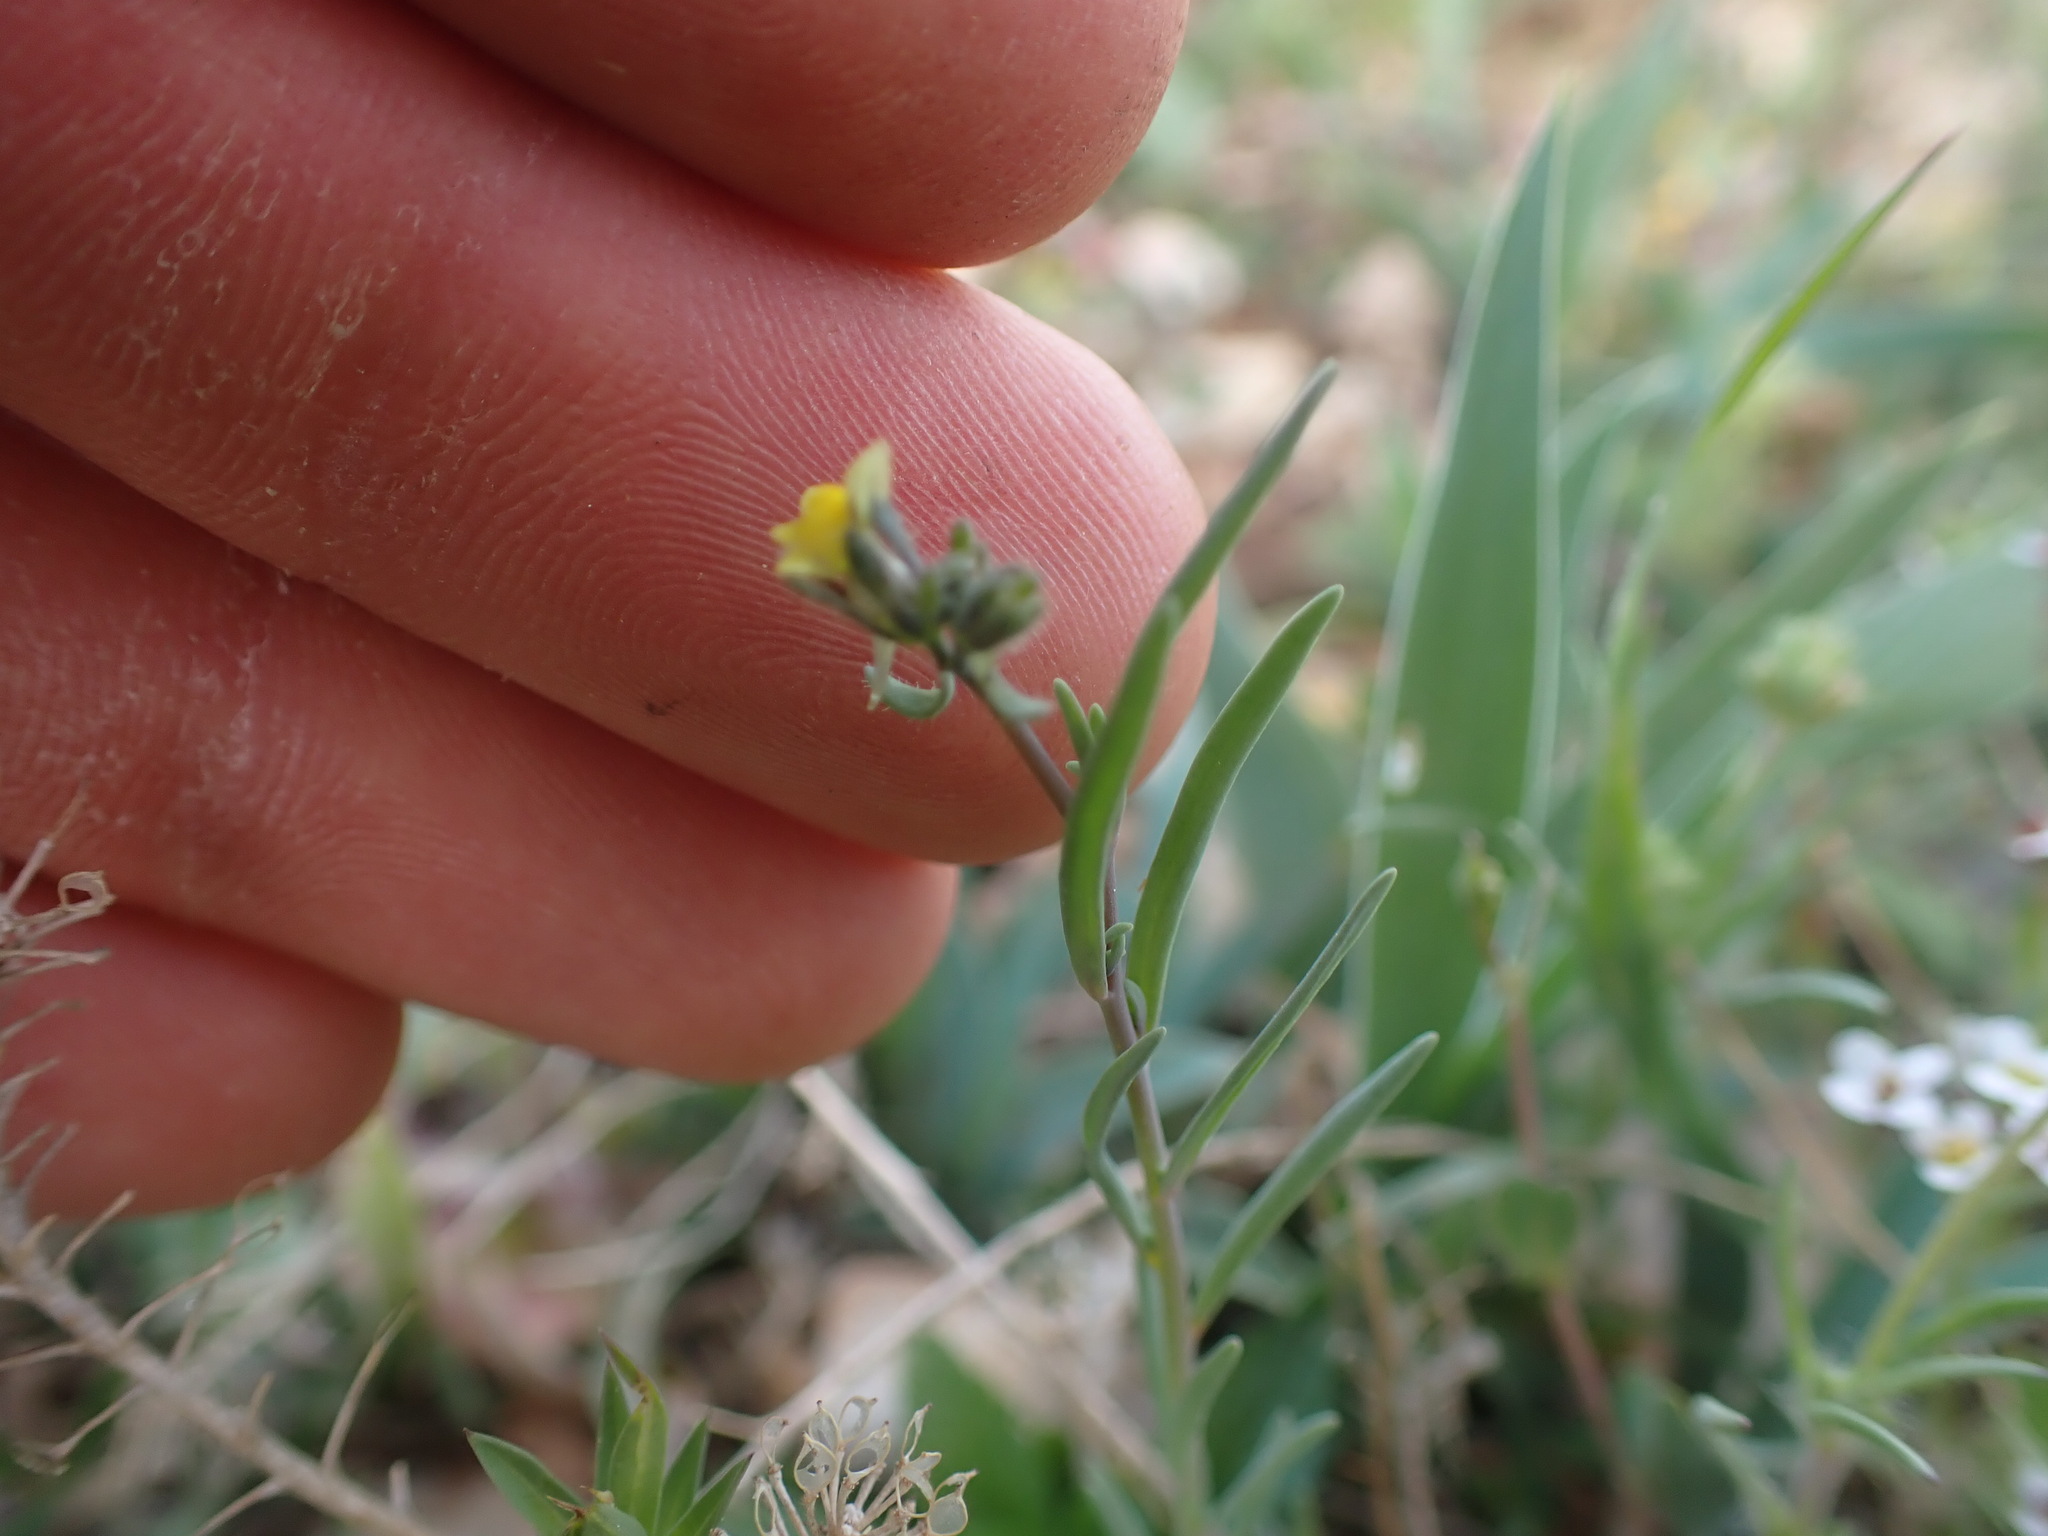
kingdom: Plantae
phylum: Tracheophyta
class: Magnoliopsida
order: Lamiales
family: Plantaginaceae
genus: Linaria
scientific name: Linaria simplex
